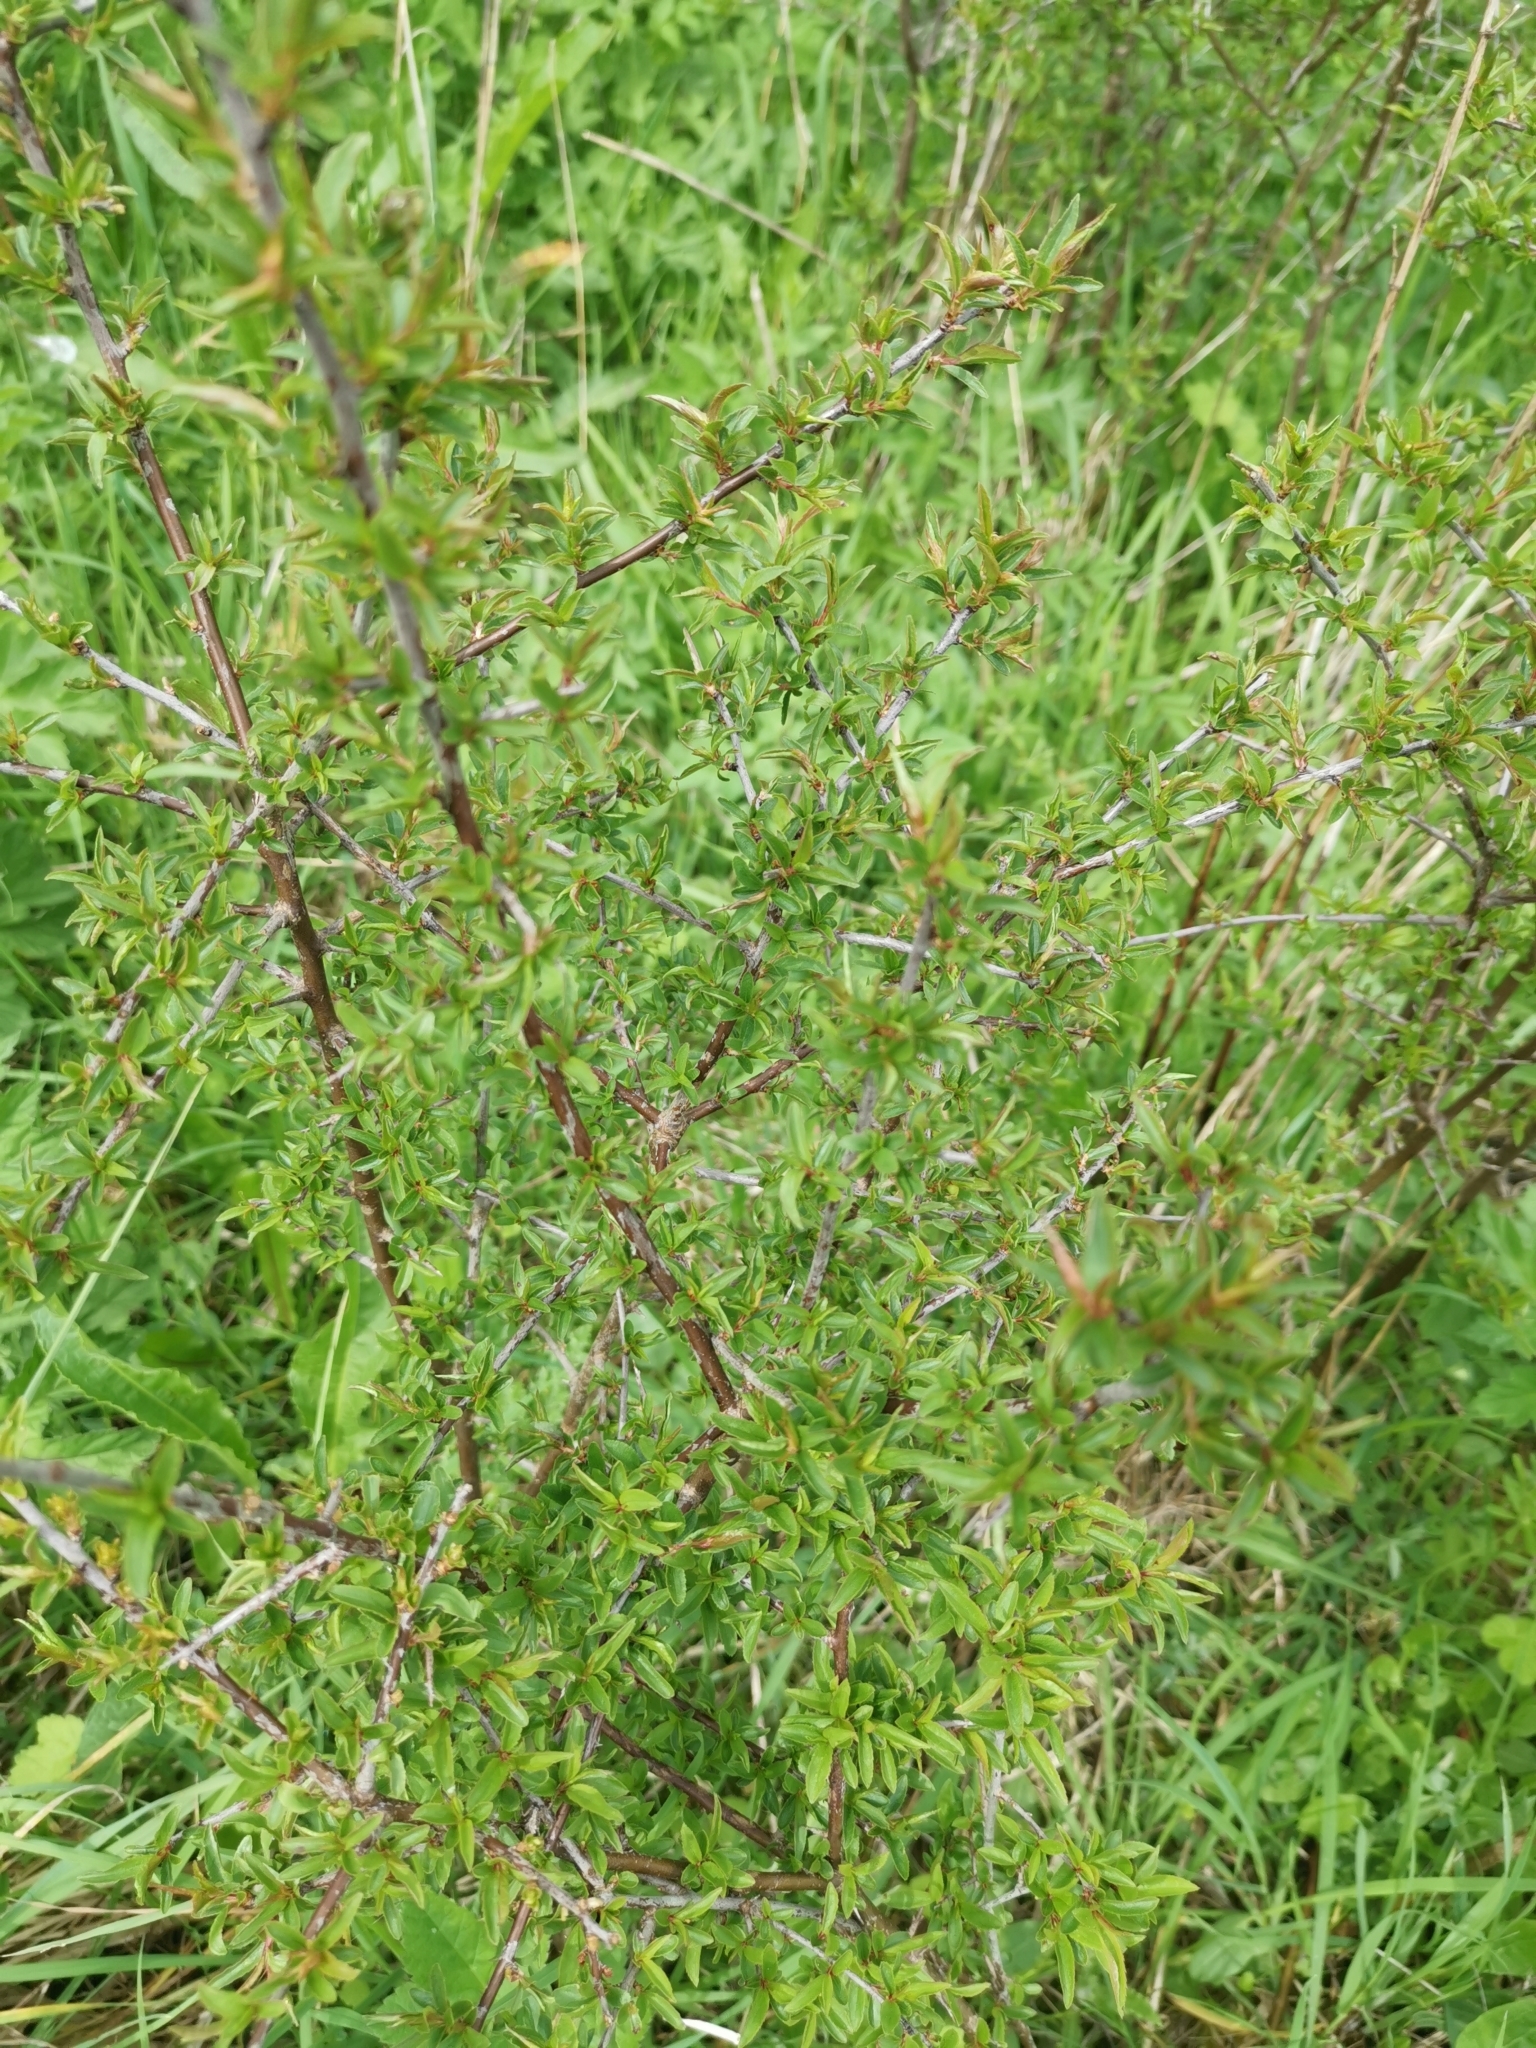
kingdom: Plantae
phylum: Tracheophyta
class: Magnoliopsida
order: Rosales
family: Rosaceae
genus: Prunus
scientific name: Prunus spinosa
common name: Blackthorn
